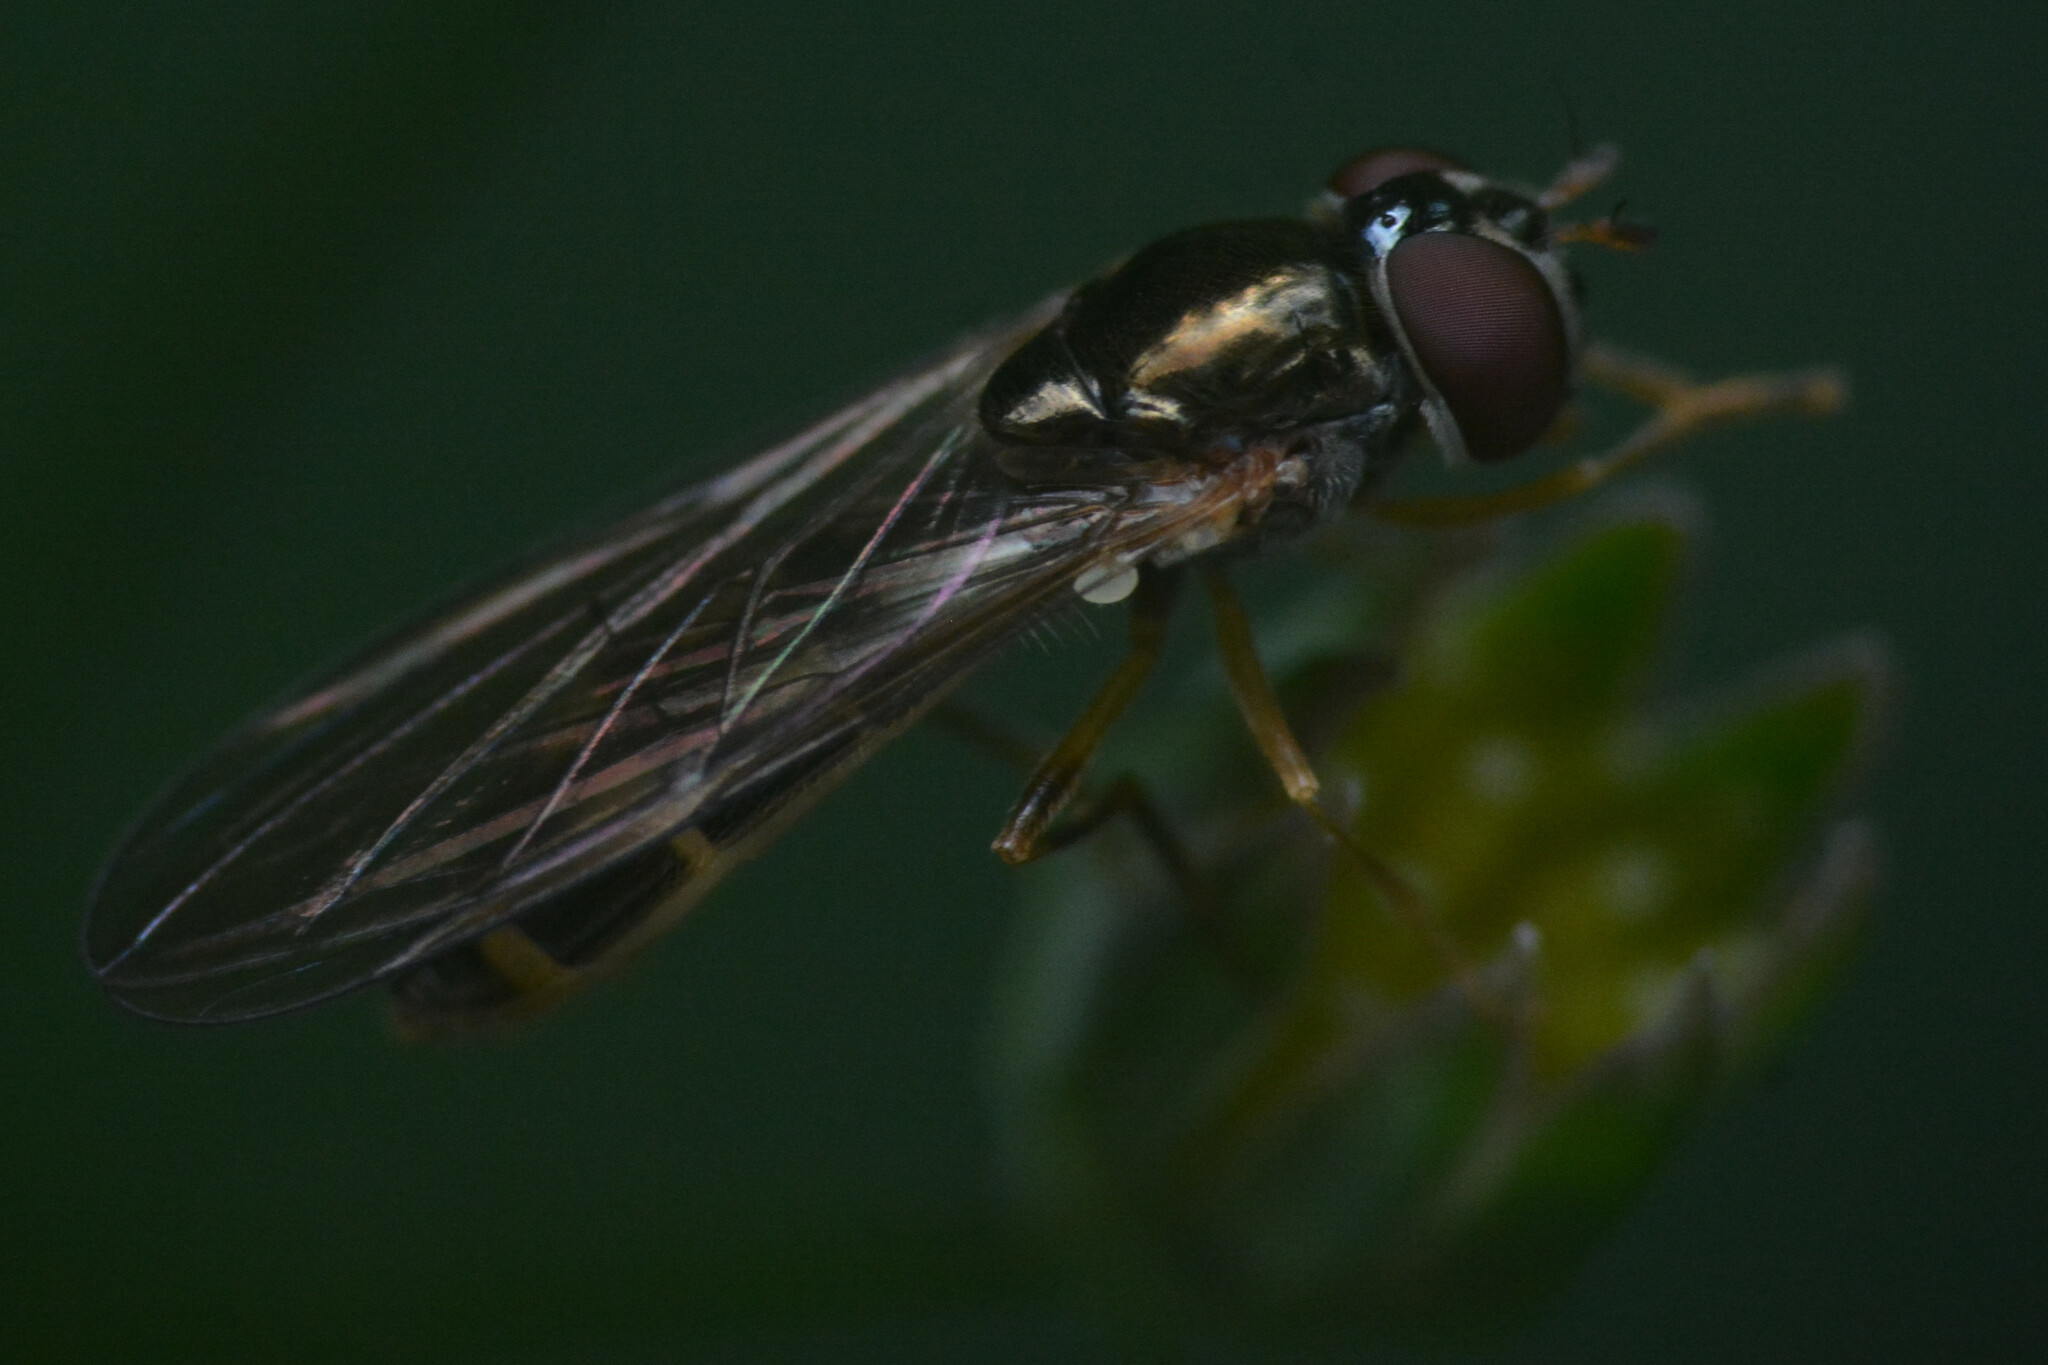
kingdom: Animalia
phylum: Arthropoda
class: Insecta
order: Diptera
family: Syrphidae
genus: Melanostoma
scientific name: Melanostoma scalare
